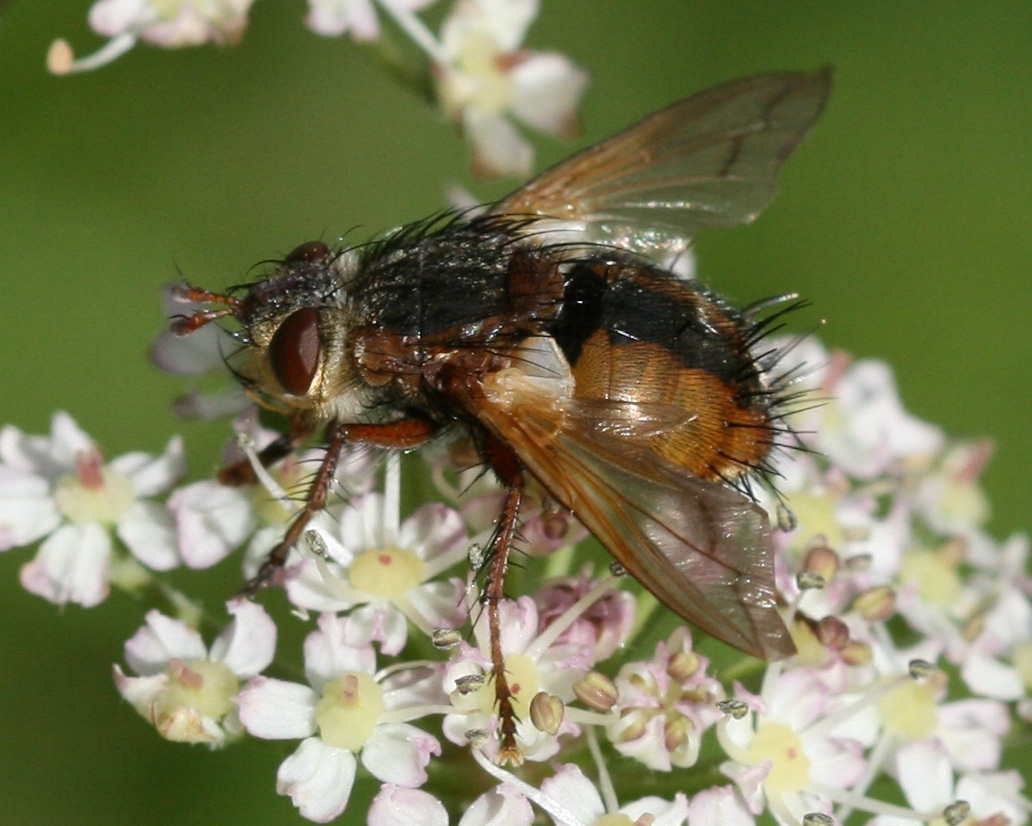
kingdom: Animalia
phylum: Arthropoda
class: Insecta
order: Diptera
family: Tachinidae
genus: Tachina
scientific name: Tachina fera
